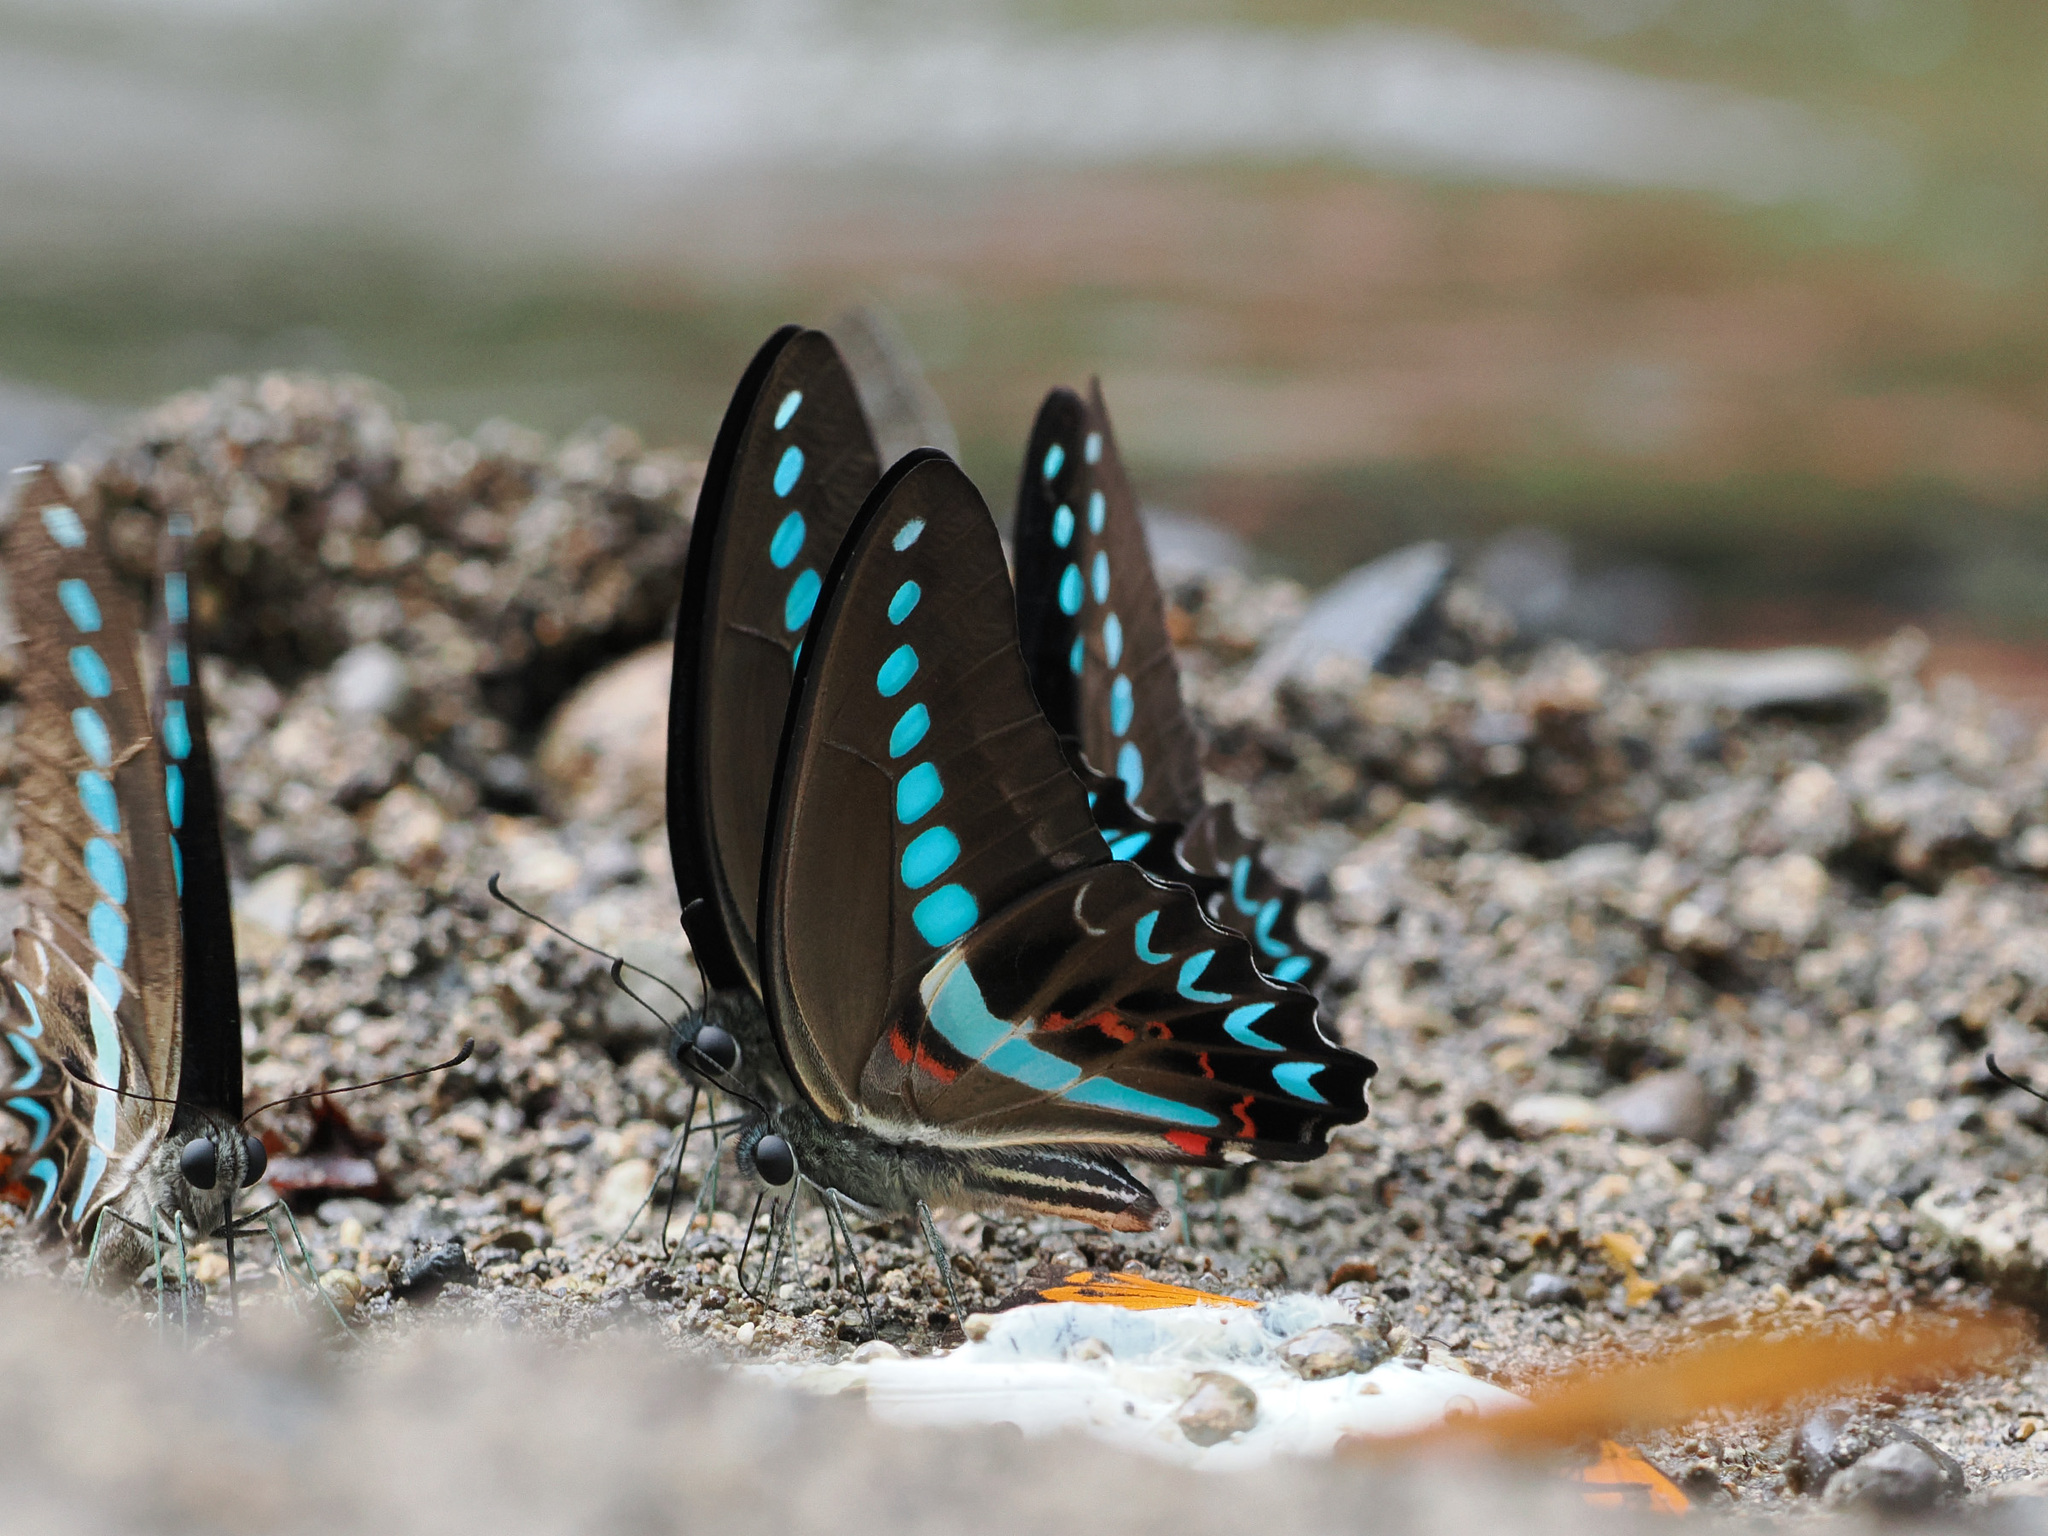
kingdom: Animalia
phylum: Arthropoda
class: Insecta
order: Lepidoptera
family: Papilionidae
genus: Graphium
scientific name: Graphium milon
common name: Milon's swallowtail
